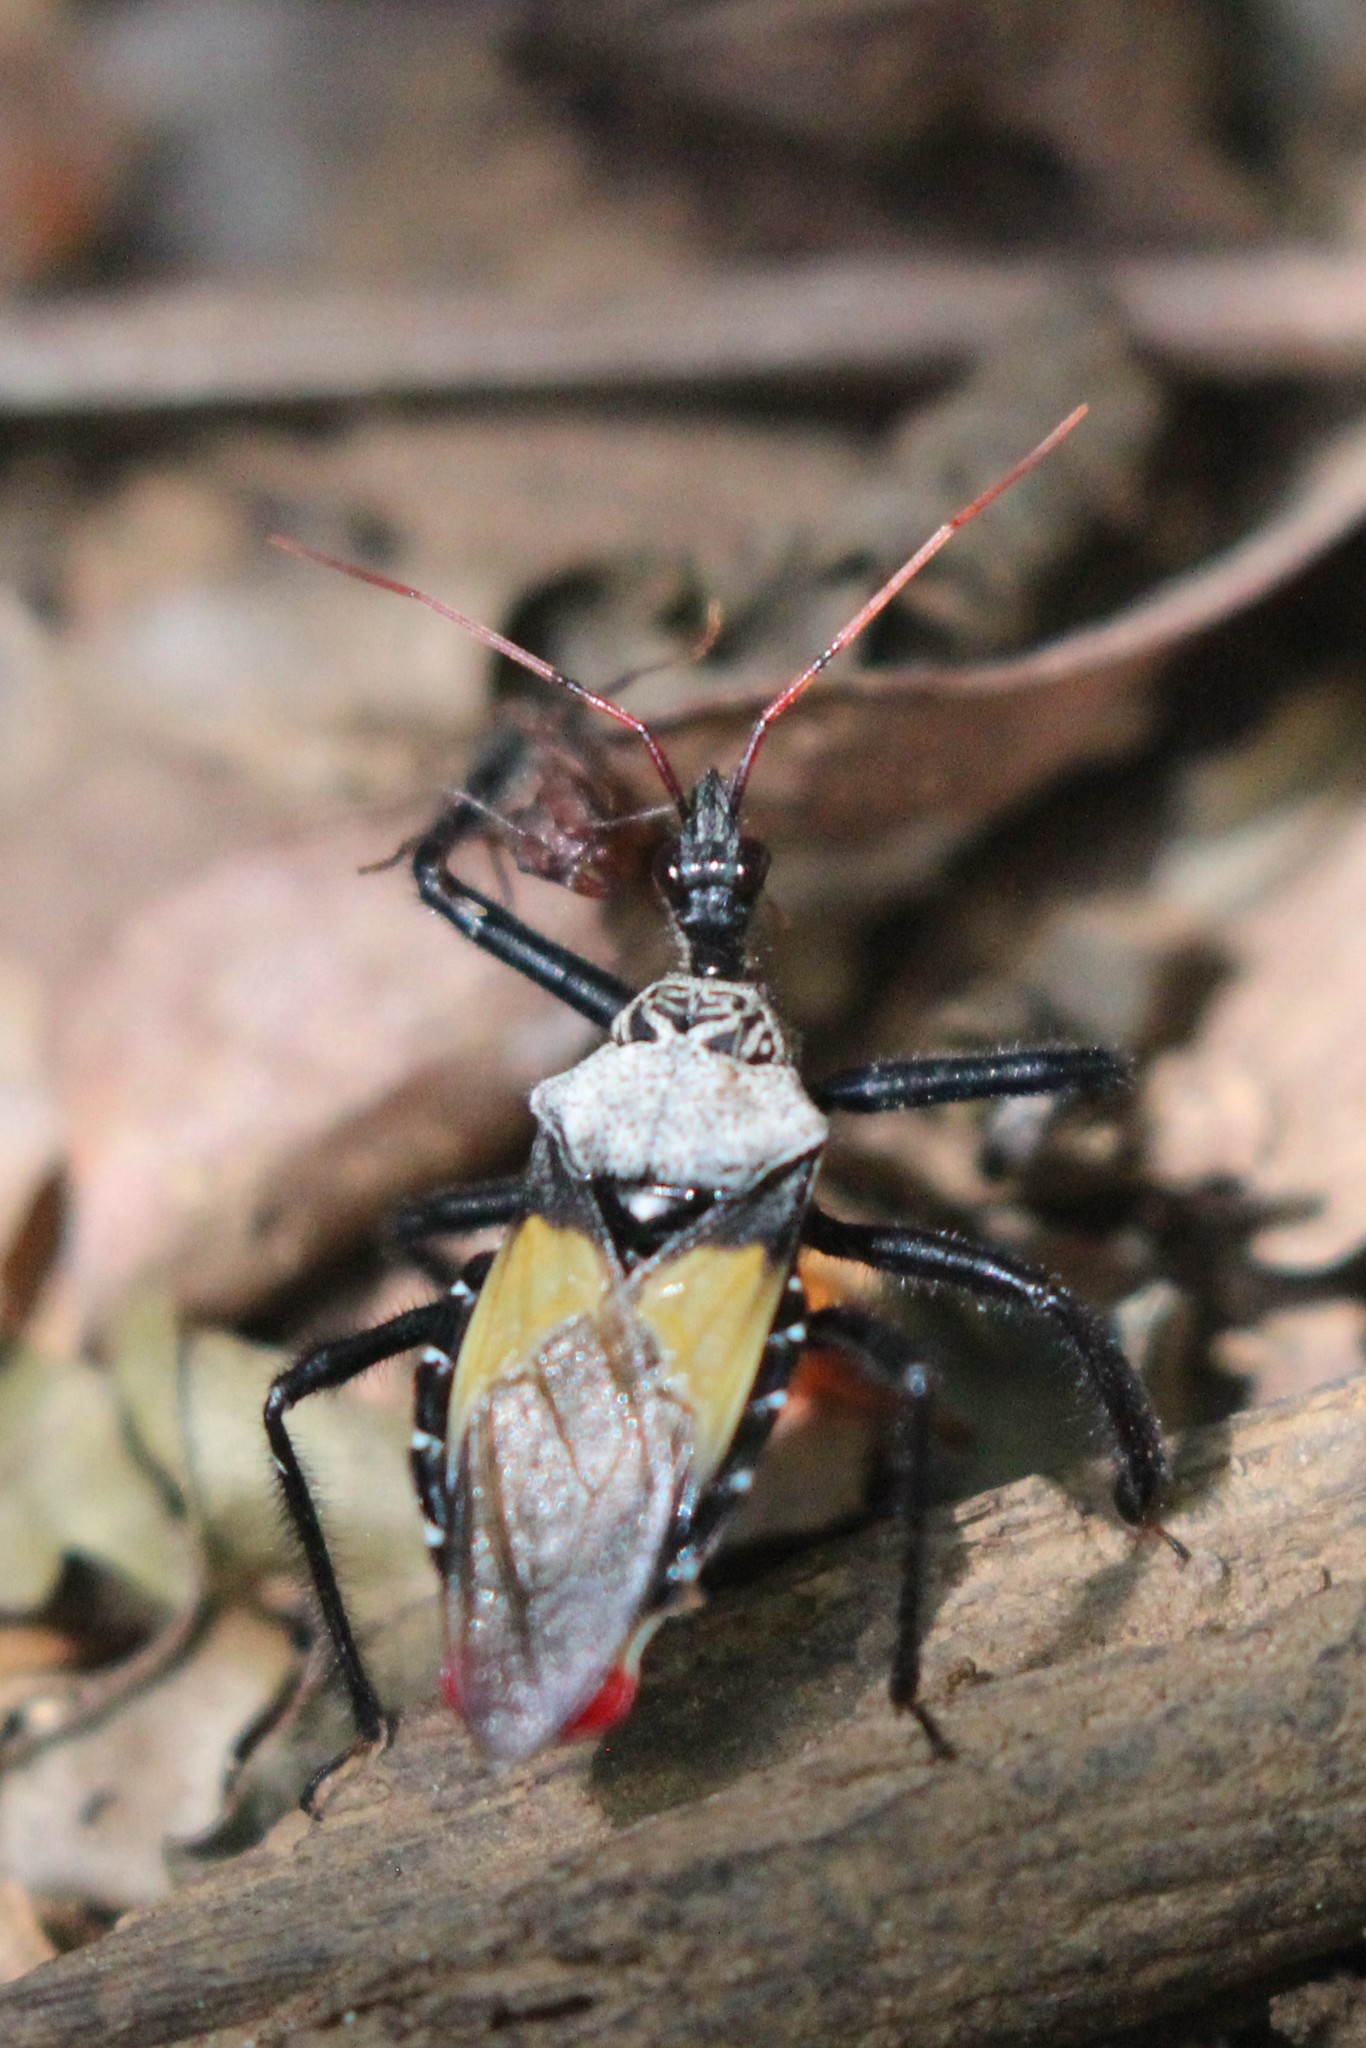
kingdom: Animalia
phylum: Arthropoda
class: Insecta
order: Hemiptera
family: Reduviidae
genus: Apiomerus
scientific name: Apiomerus vexillarius
